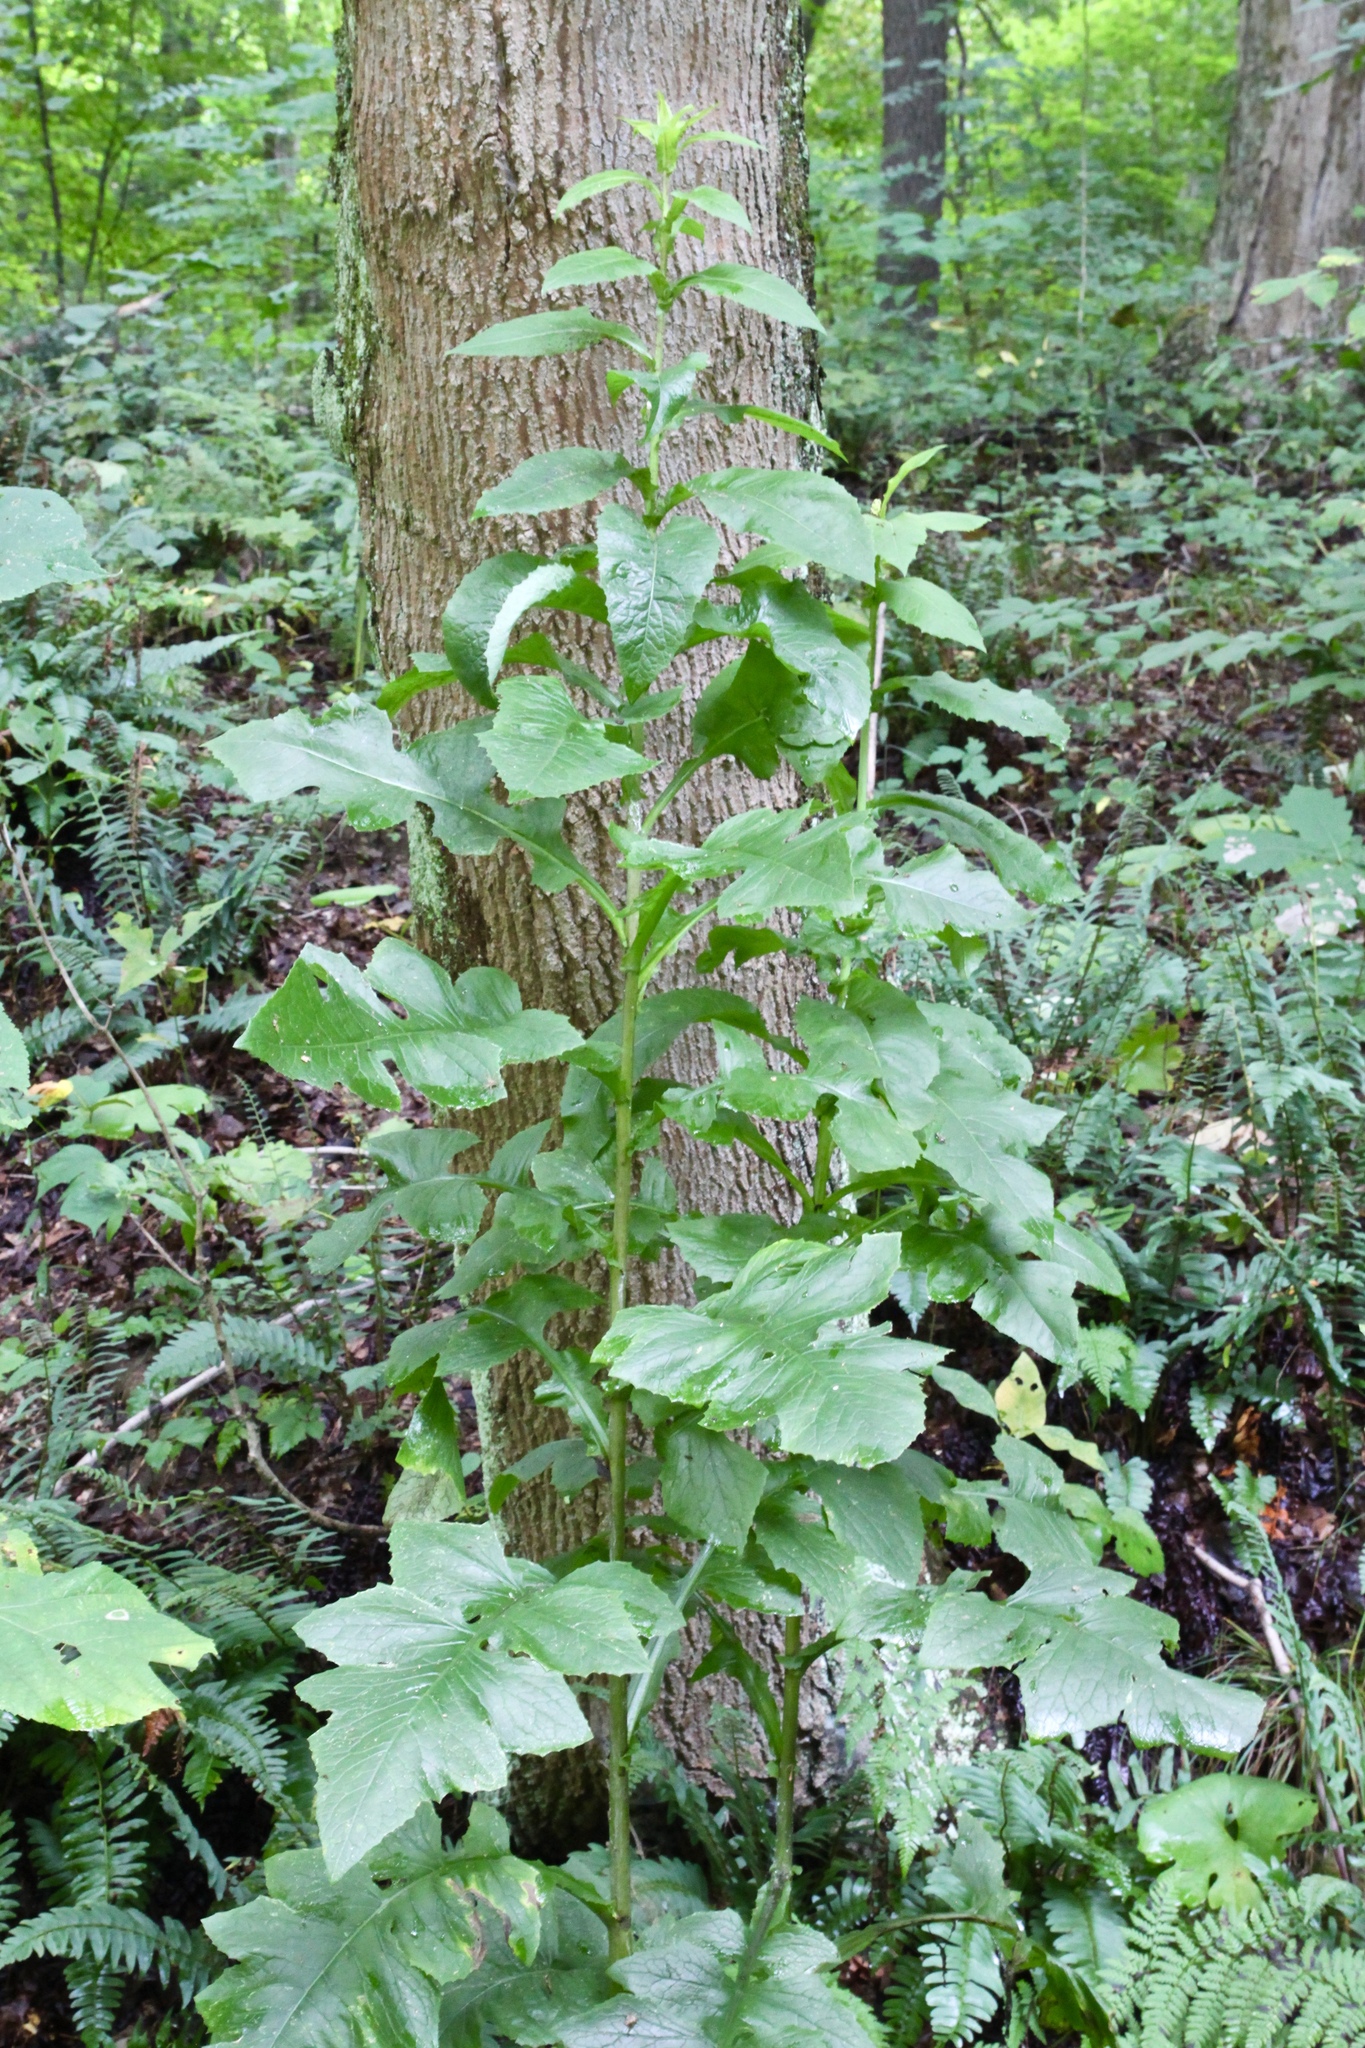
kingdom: Plantae
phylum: Tracheophyta
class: Magnoliopsida
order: Asterales
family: Asteraceae
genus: Lactuca
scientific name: Lactuca biennis
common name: Blue wood lettuce
